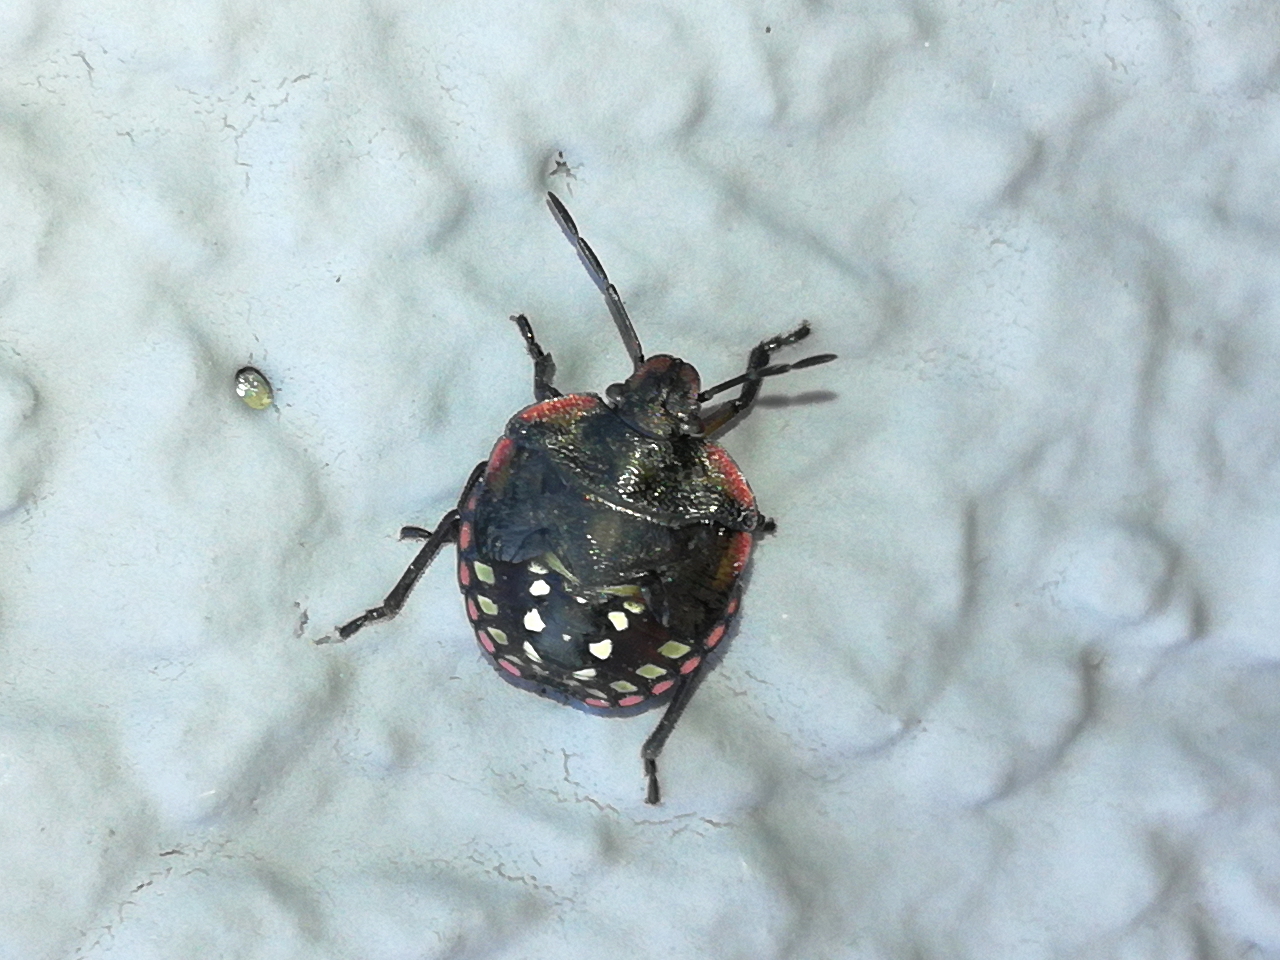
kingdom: Animalia
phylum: Arthropoda
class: Insecta
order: Hemiptera
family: Pentatomidae
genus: Nezara
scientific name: Nezara viridula
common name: Southern green stink bug
